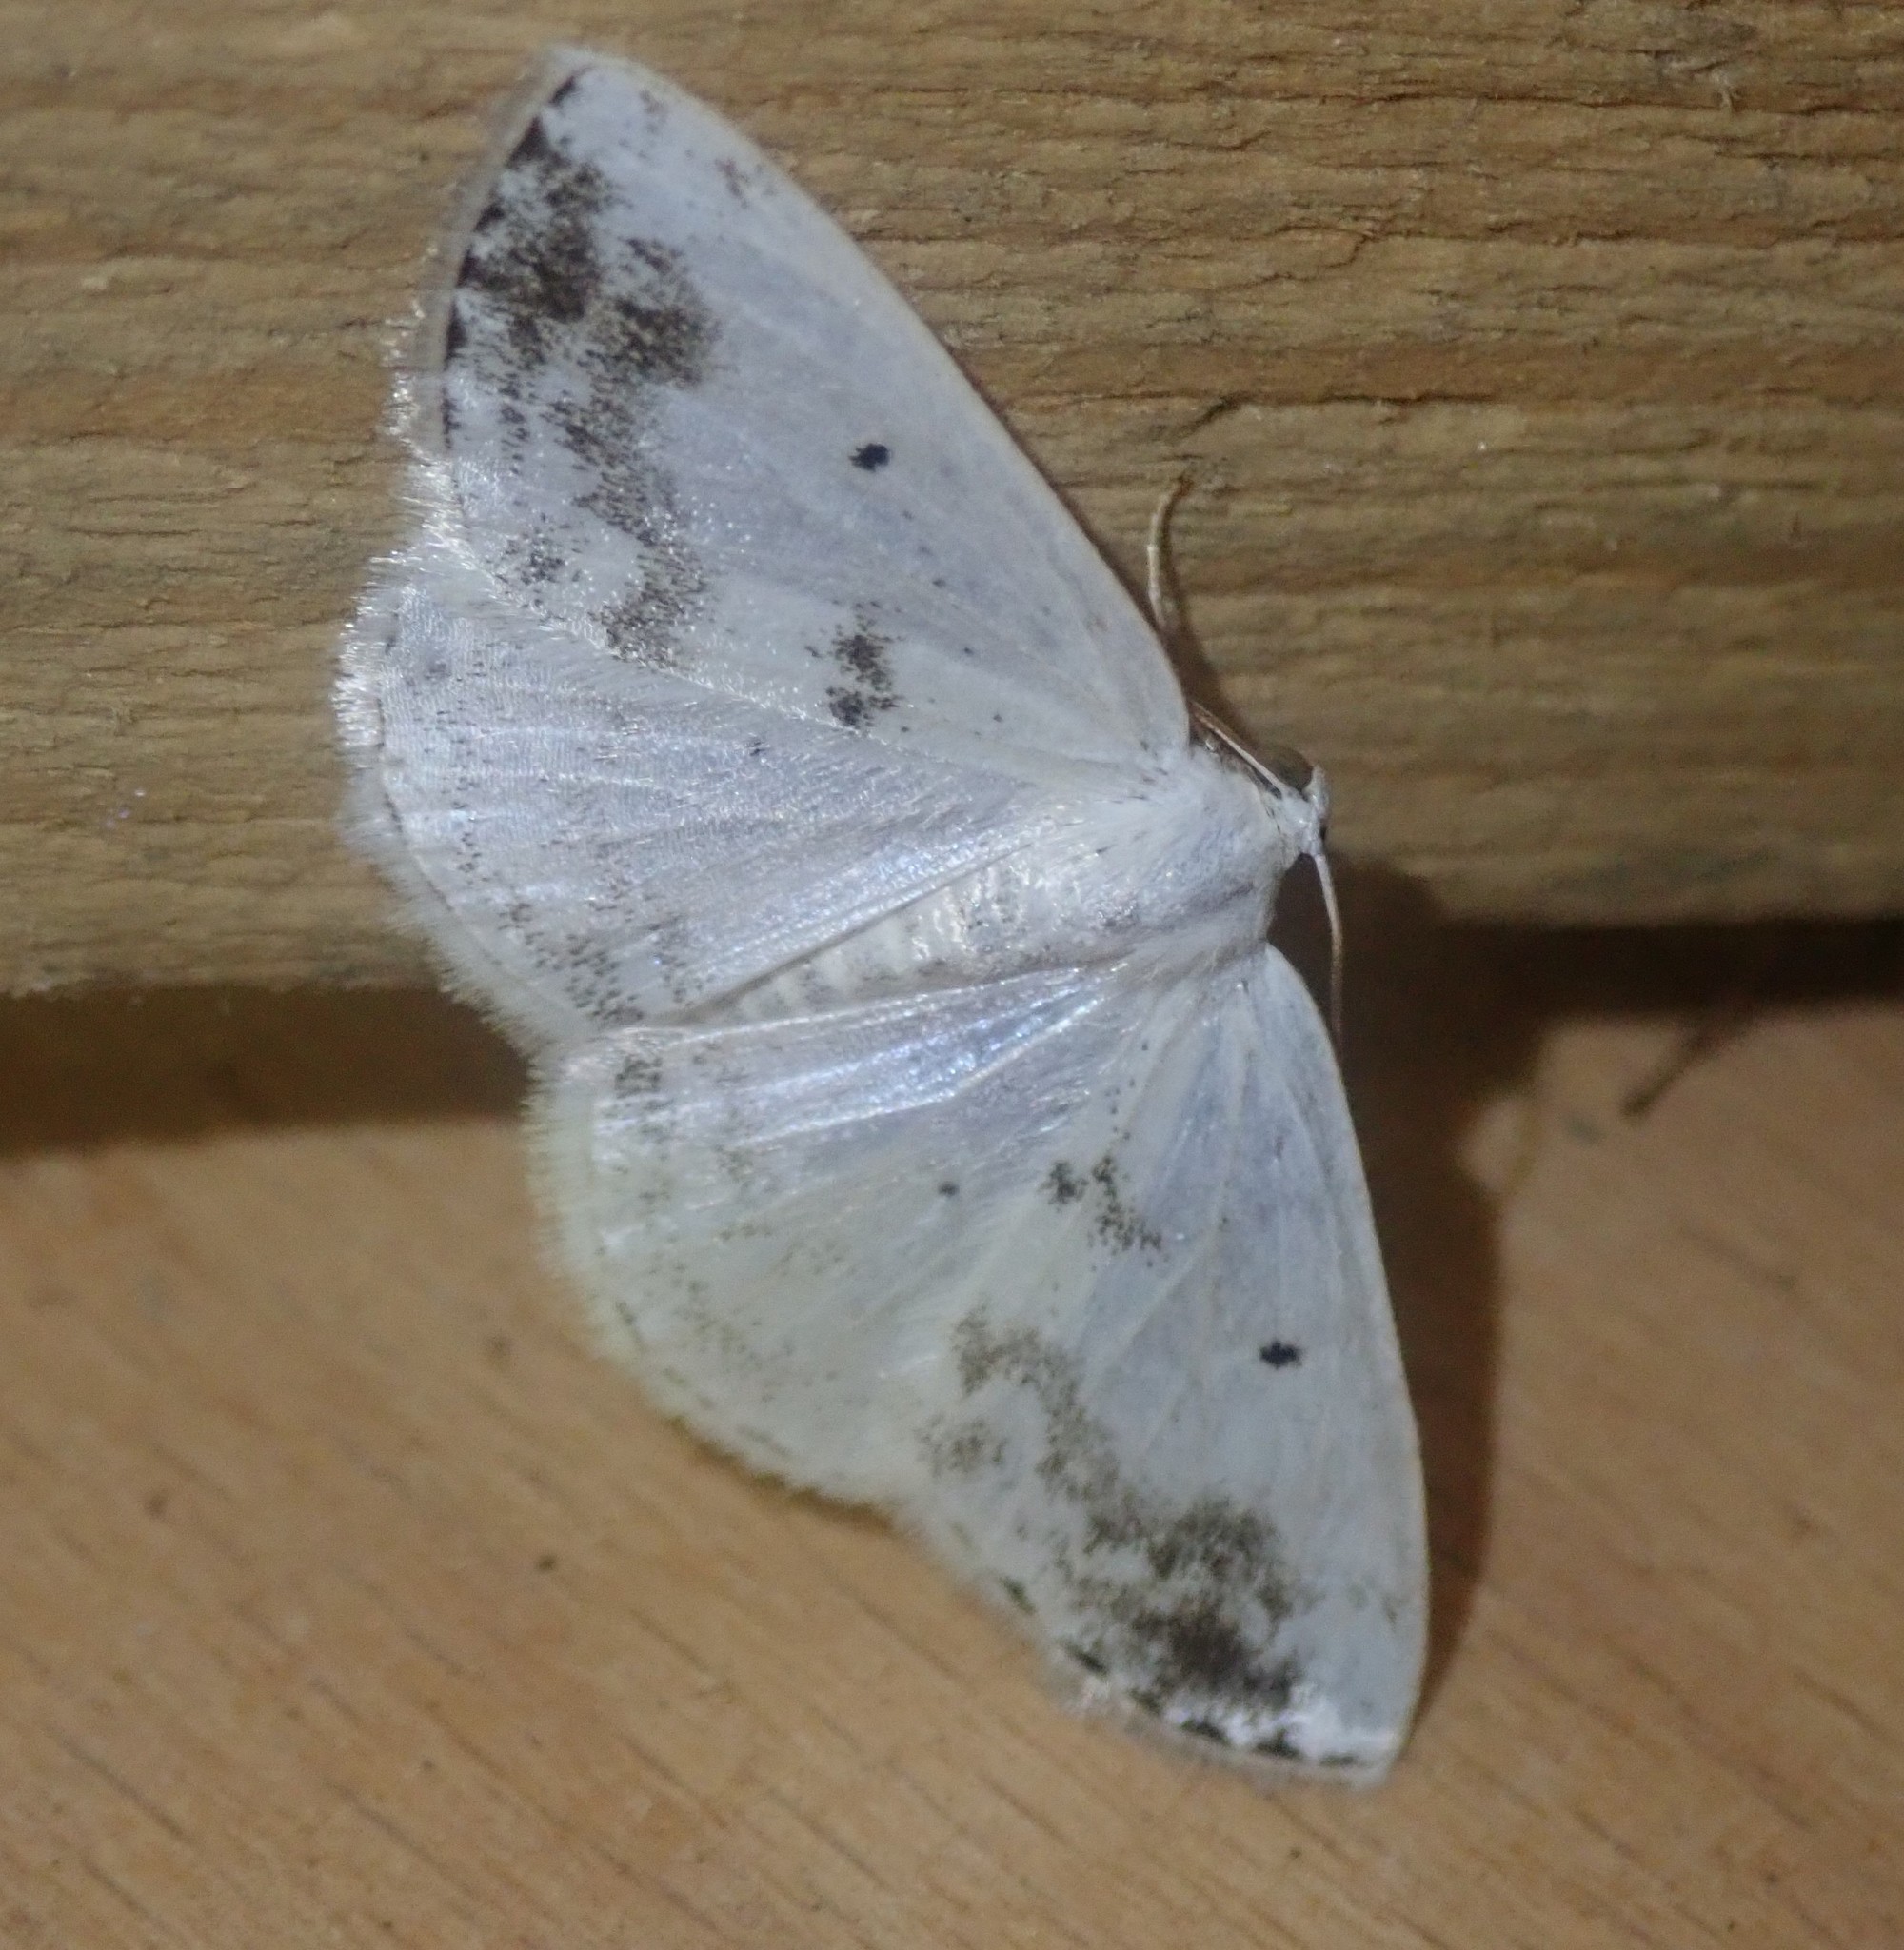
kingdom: Animalia
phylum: Arthropoda
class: Insecta
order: Lepidoptera
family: Geometridae
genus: Lomographa
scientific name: Lomographa temerata
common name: Clouded silver
